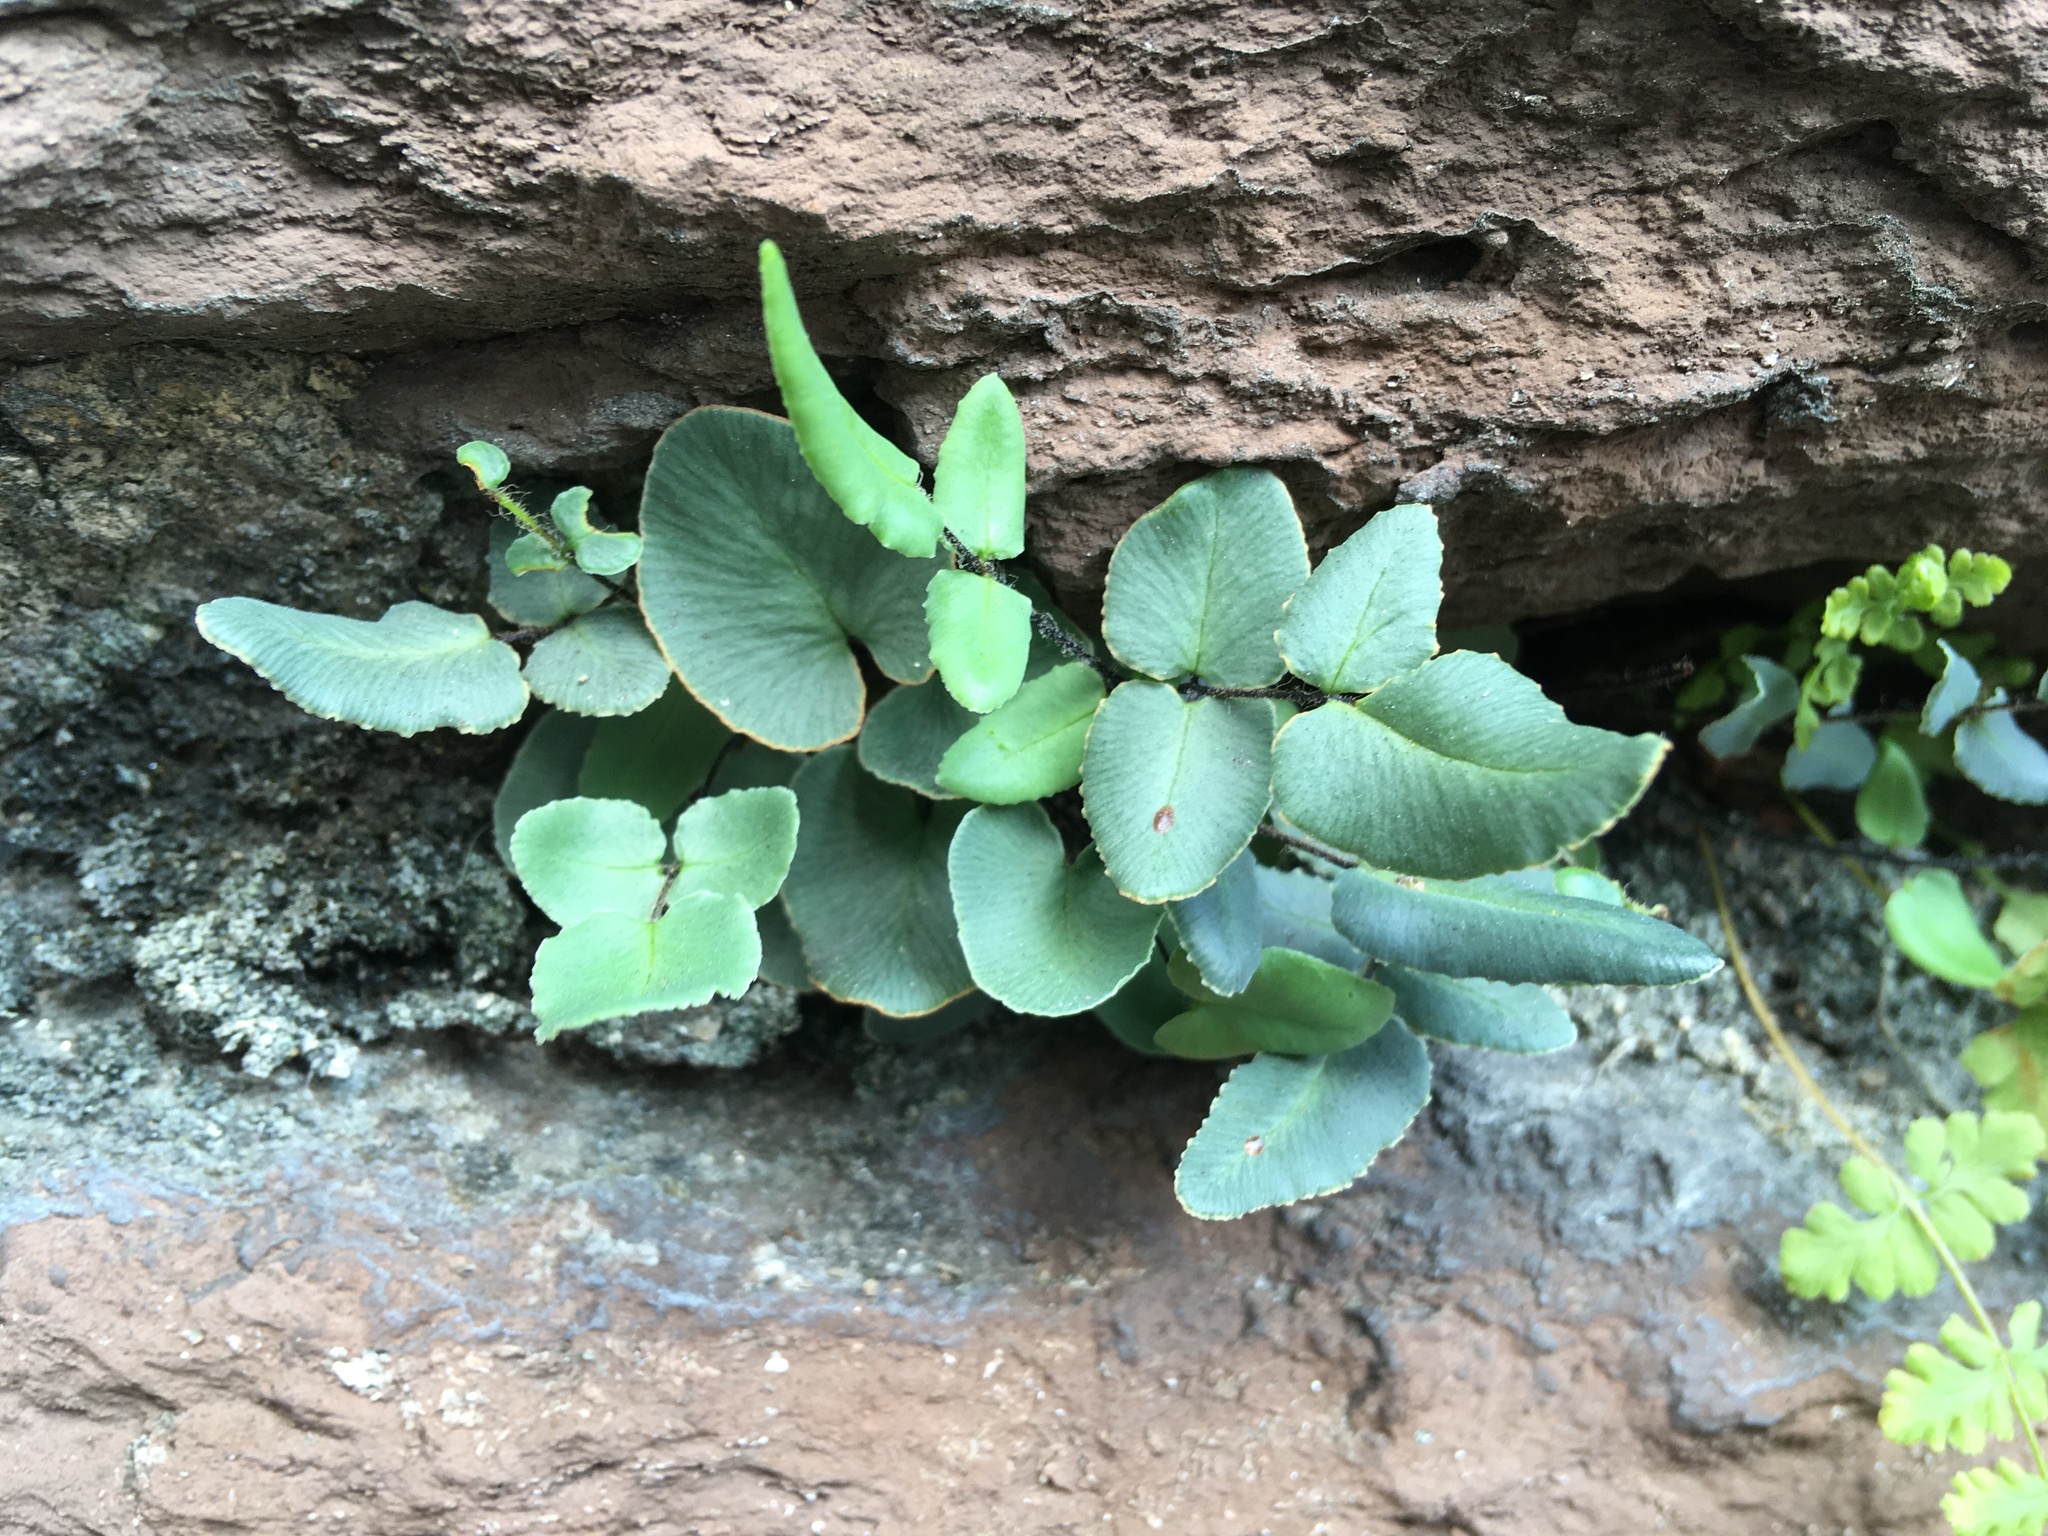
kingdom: Plantae
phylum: Tracheophyta
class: Polypodiopsida
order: Polypodiales
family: Pteridaceae
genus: Pellaea
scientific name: Pellaea atropurpurea
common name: Hairy cliffbrake
